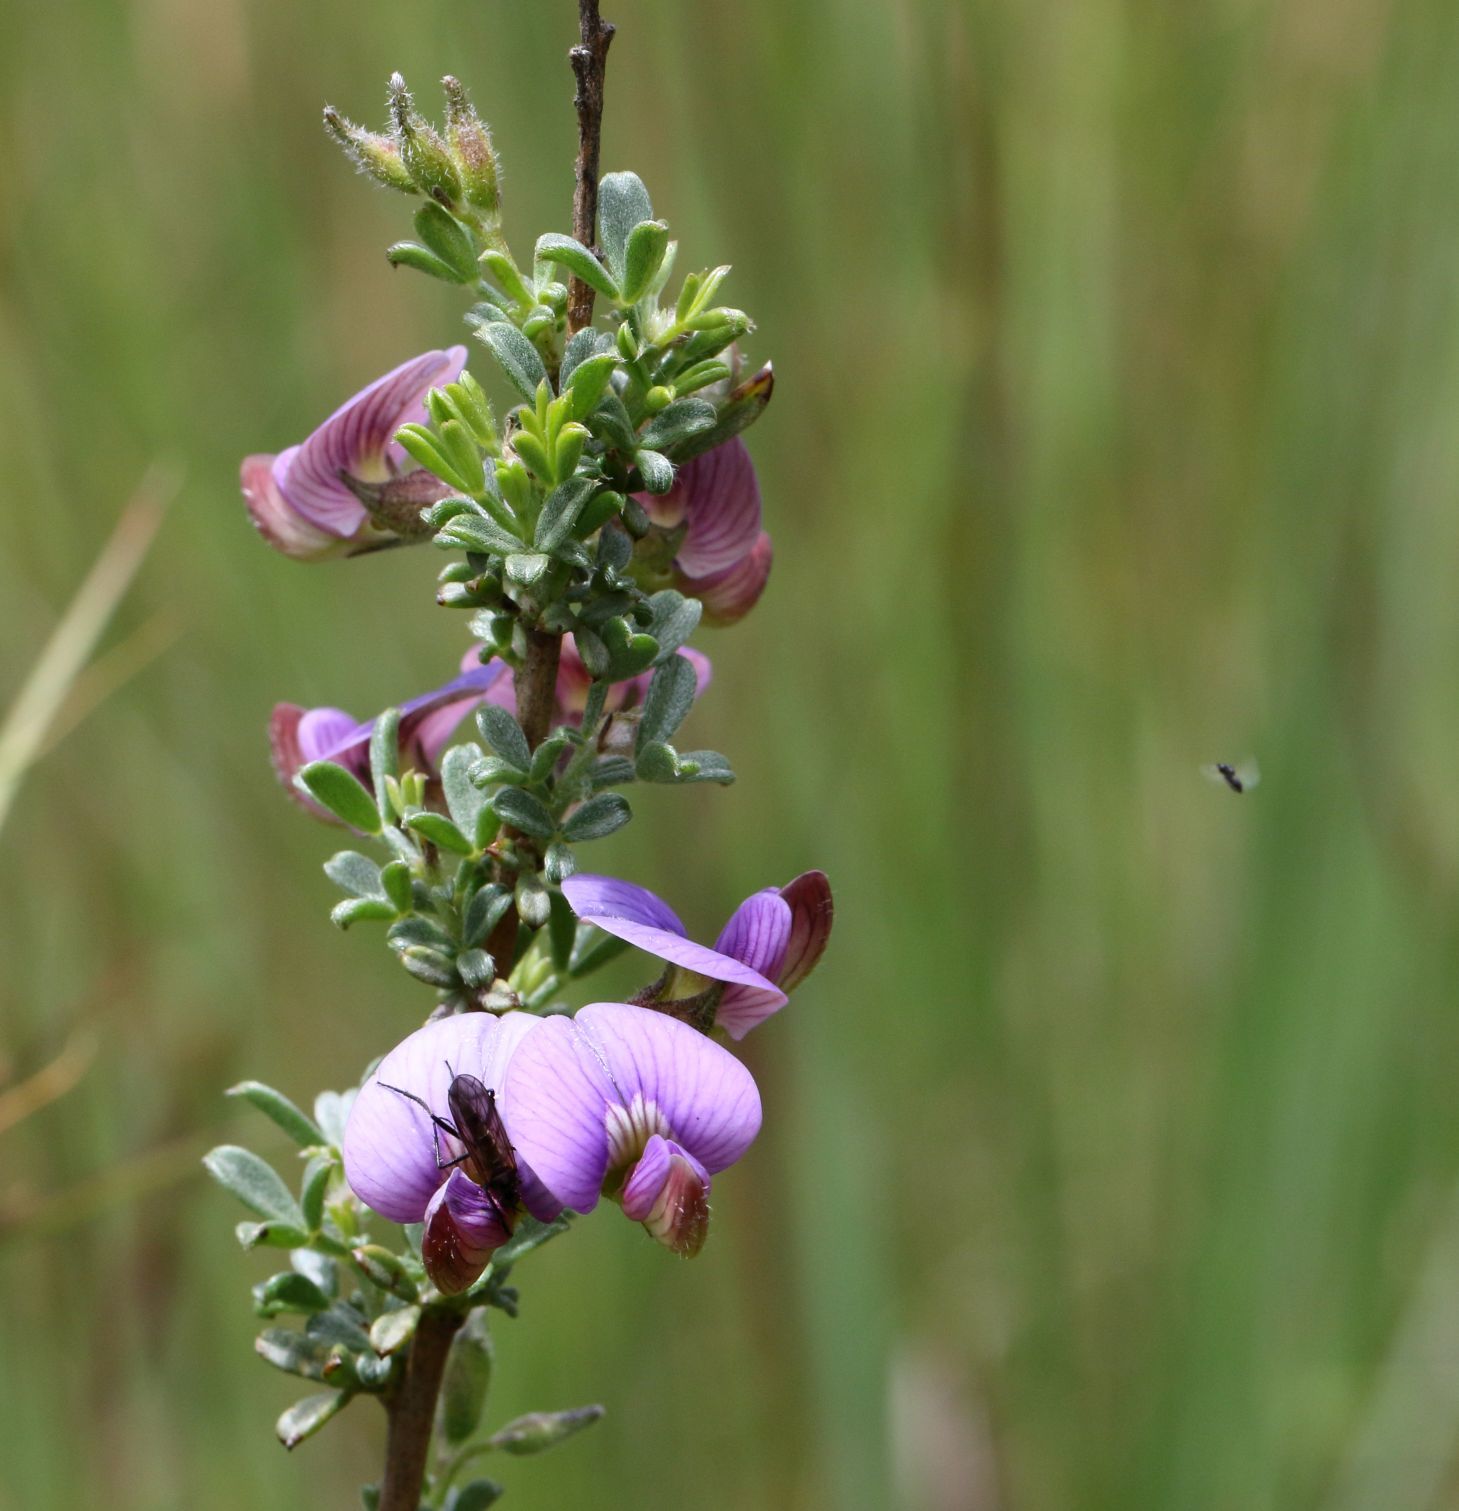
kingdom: Plantae
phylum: Tracheophyta
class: Magnoliopsida
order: Fabales
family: Fabaceae
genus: Lotononis
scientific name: Lotononis pulchella
